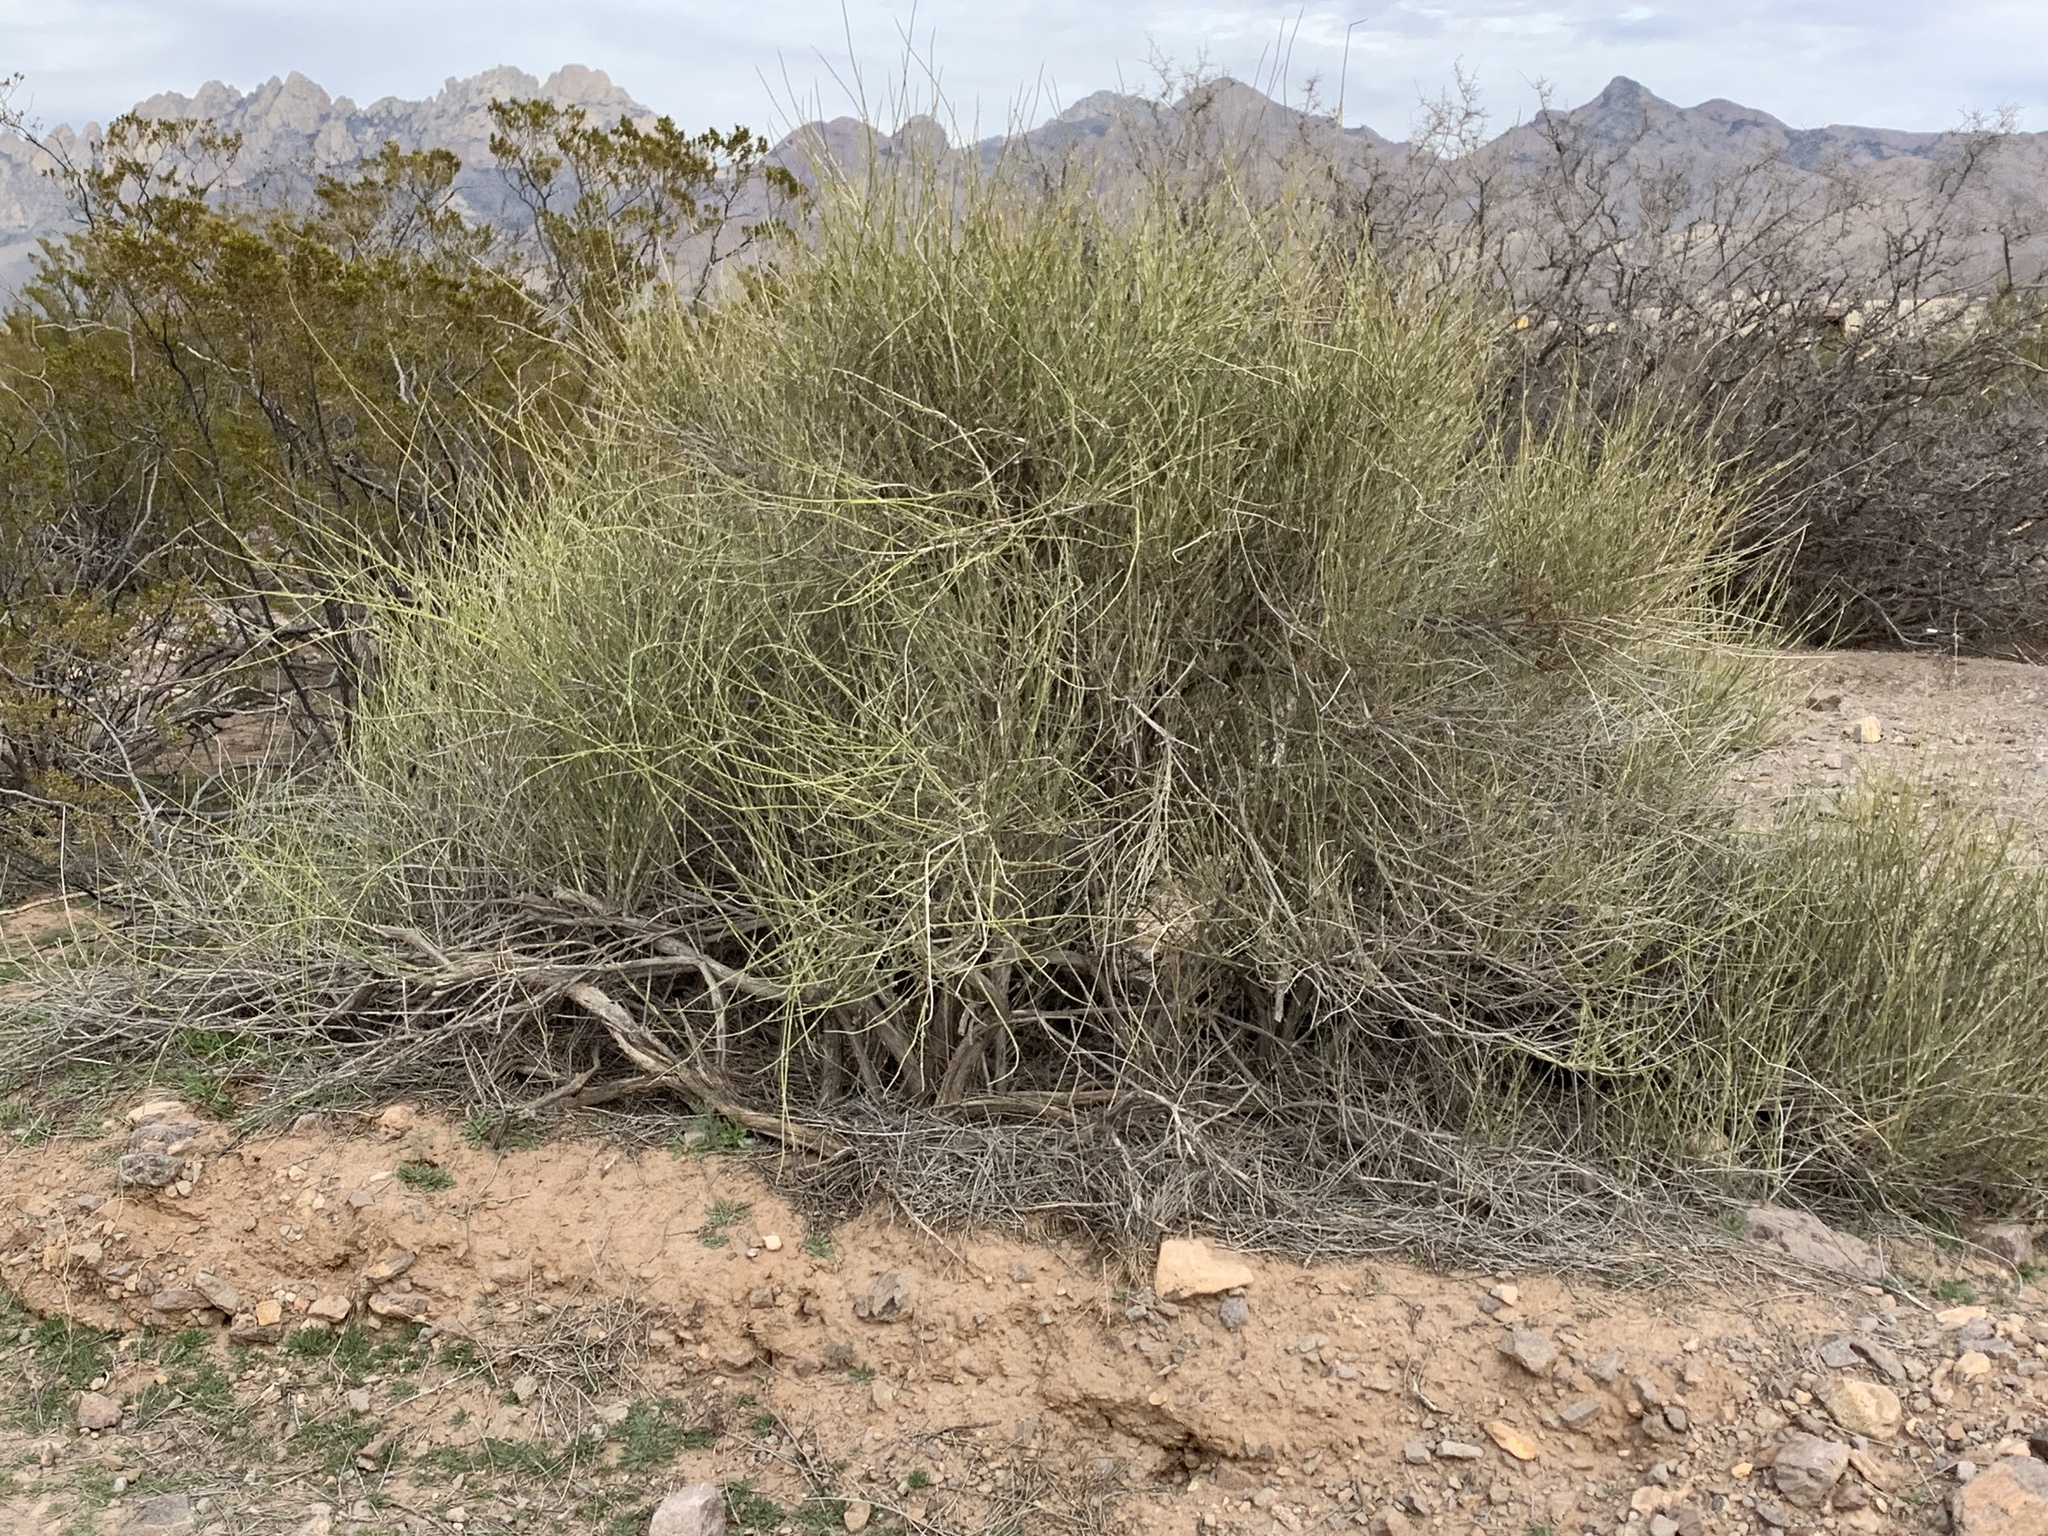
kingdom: Plantae
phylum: Tracheophyta
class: Gnetopsida
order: Ephedrales
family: Ephedraceae
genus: Ephedra
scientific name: Ephedra trifurca
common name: Mexican-tea
